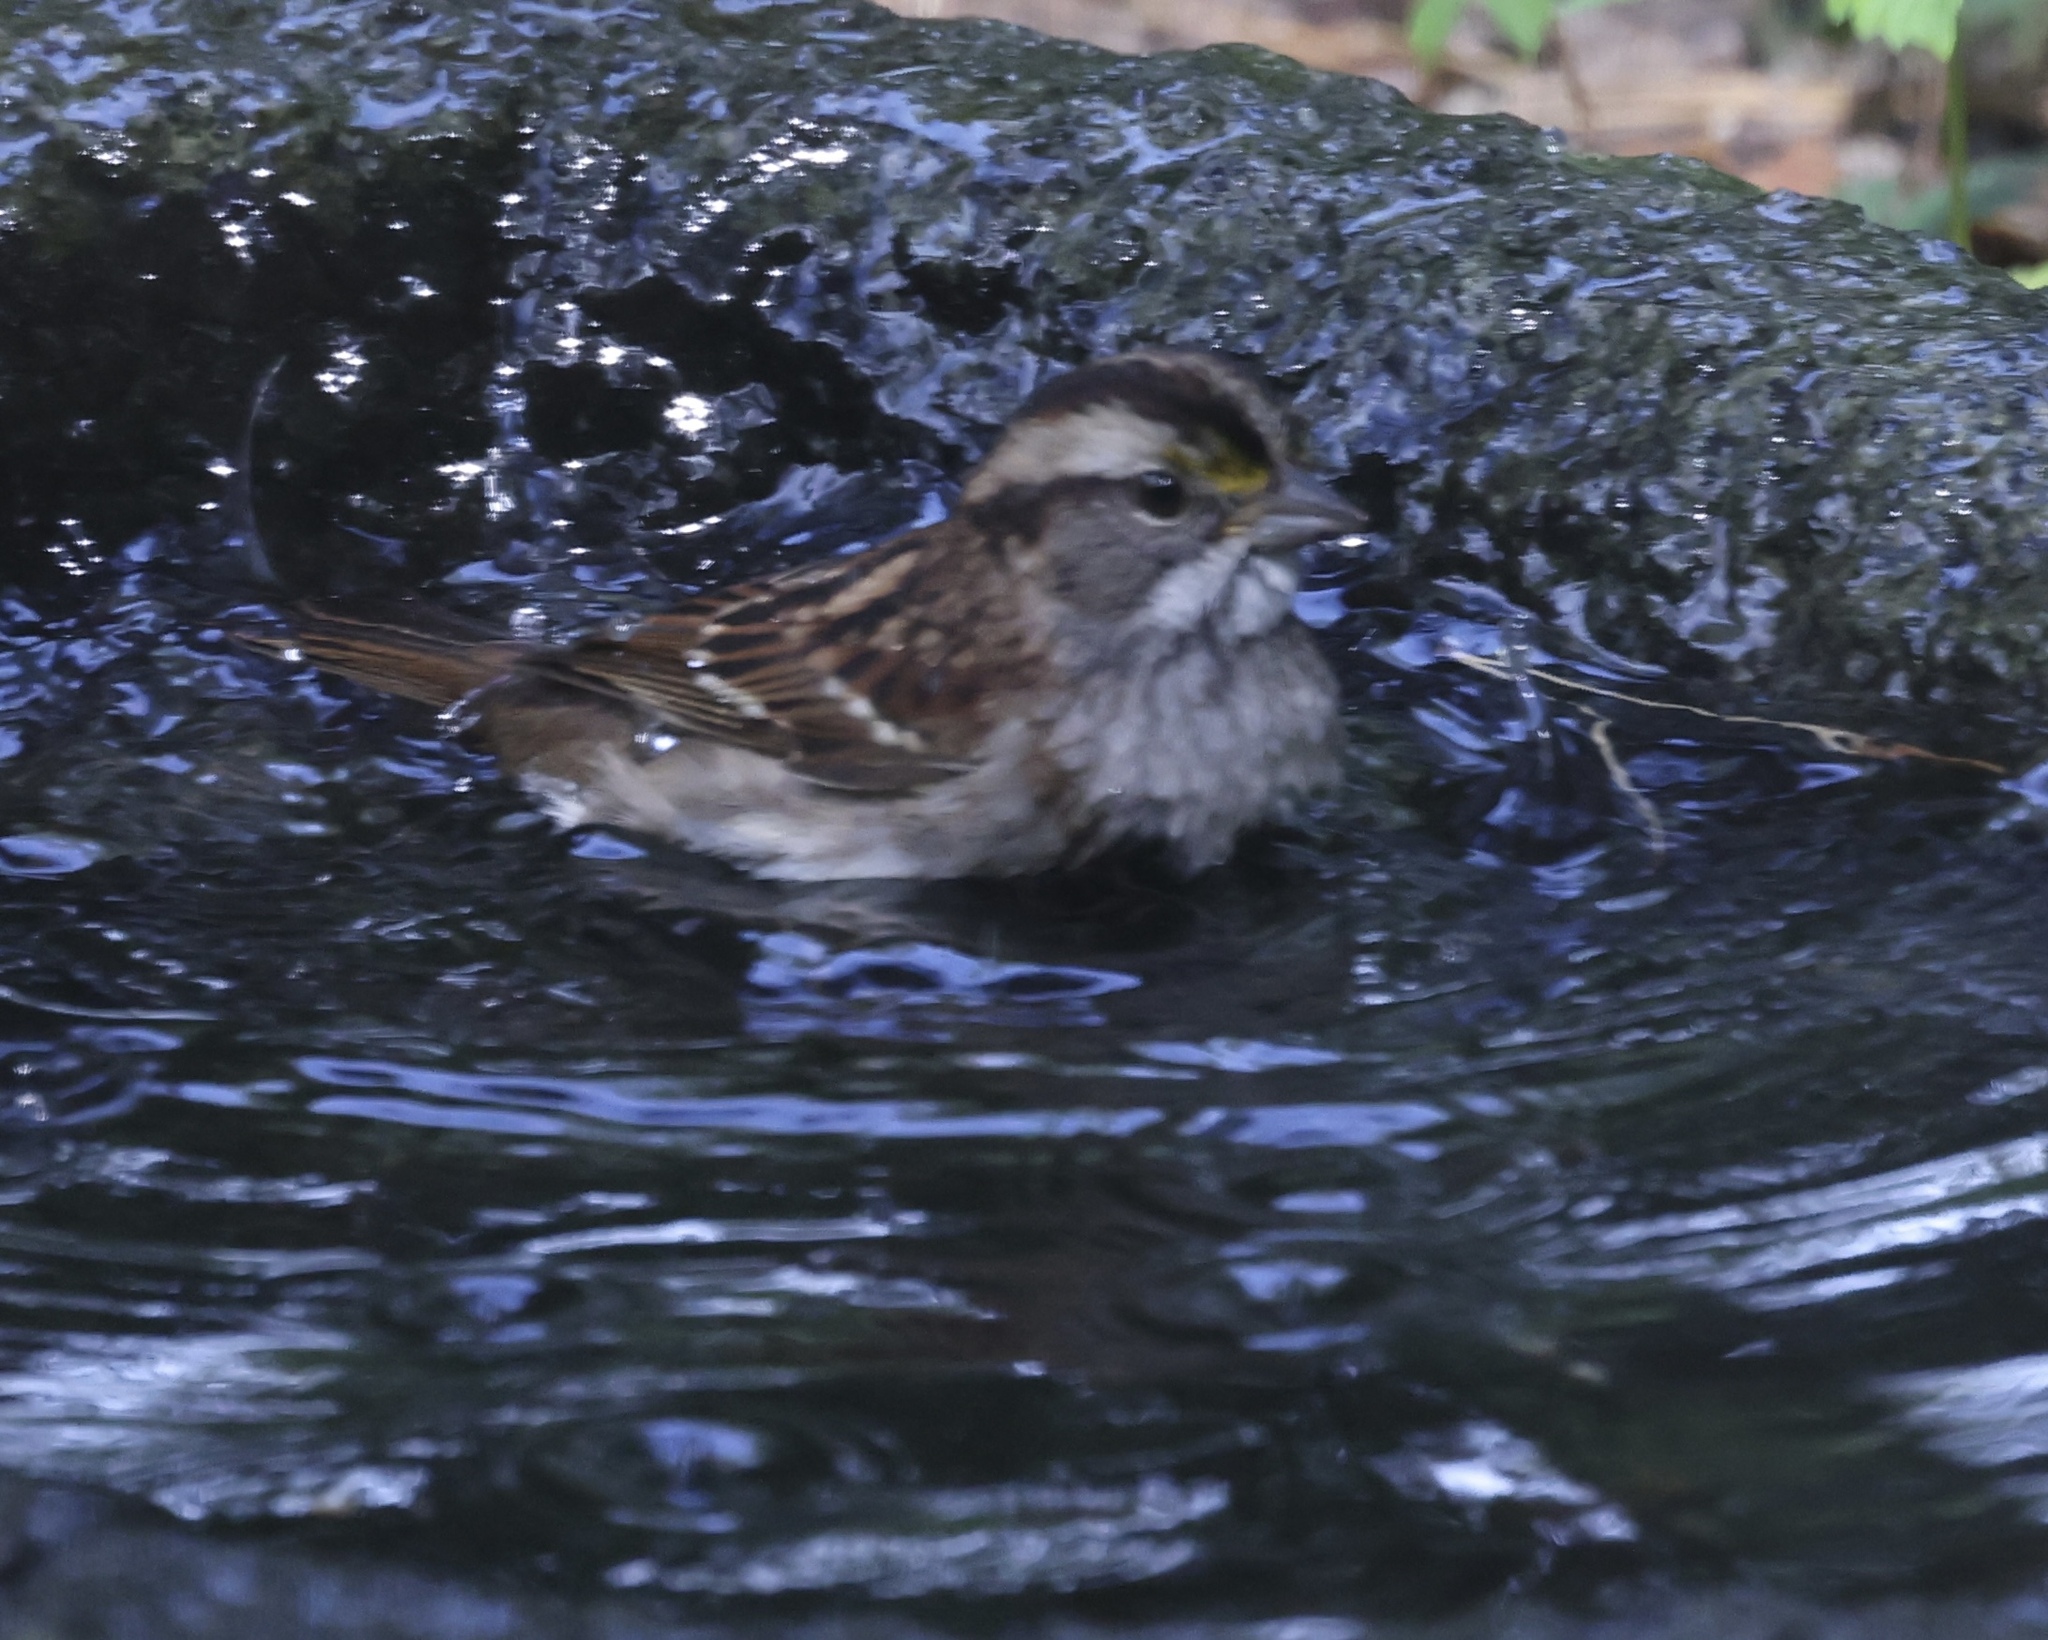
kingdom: Animalia
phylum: Chordata
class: Aves
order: Passeriformes
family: Passerellidae
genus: Zonotrichia
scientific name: Zonotrichia albicollis
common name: White-throated sparrow
